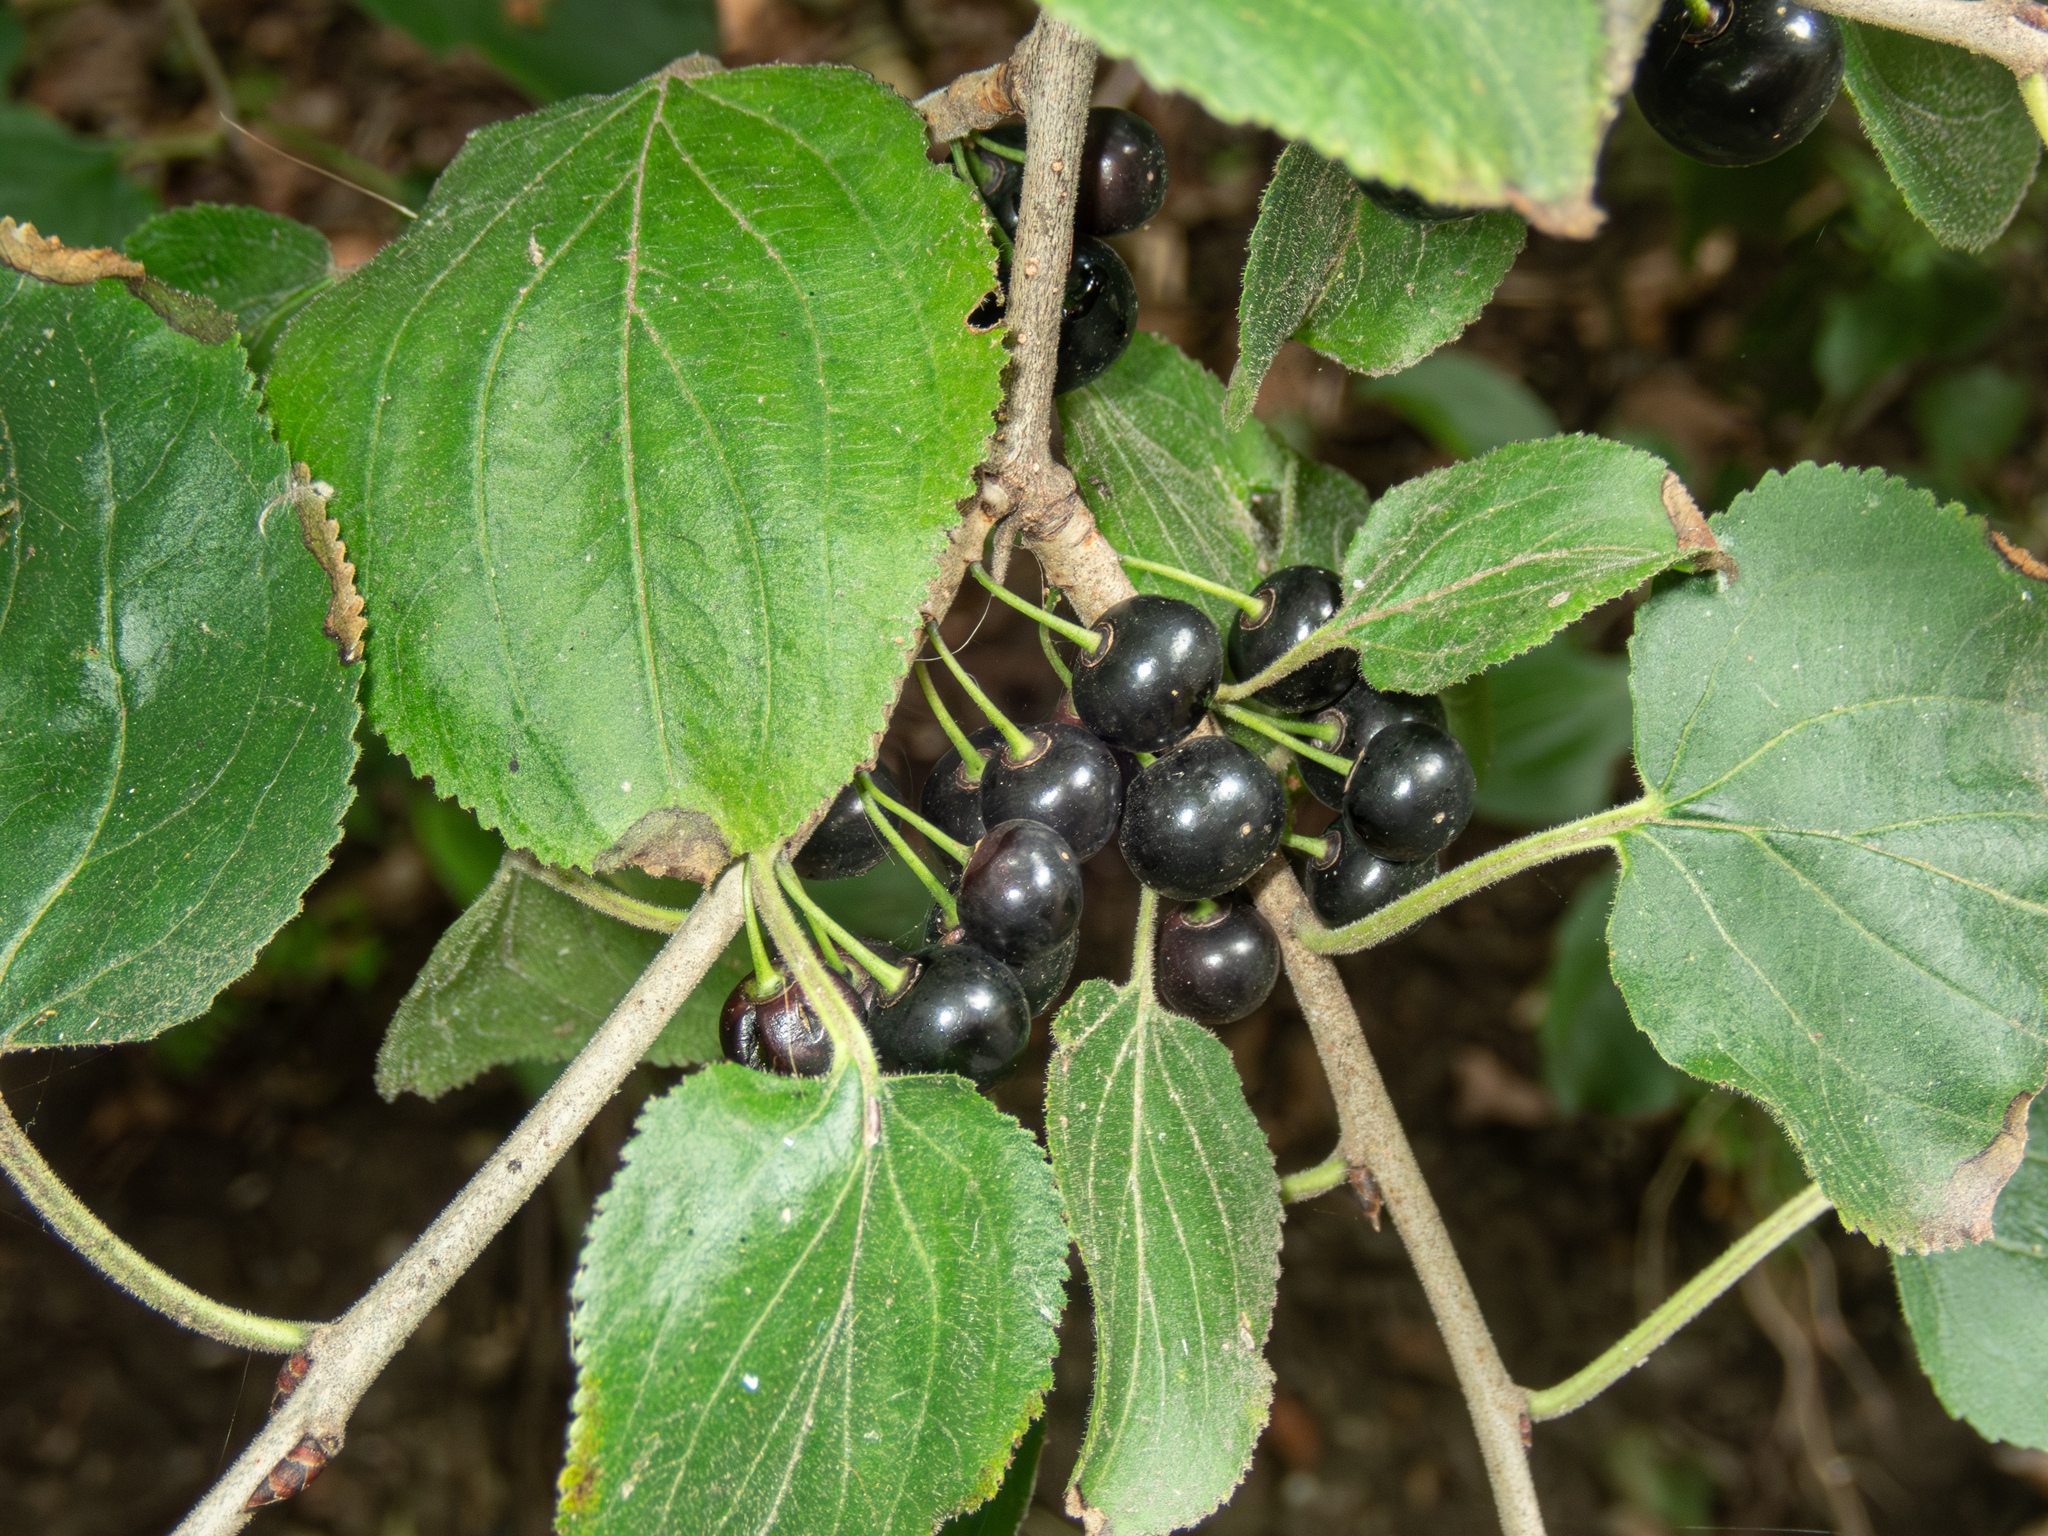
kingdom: Plantae
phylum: Tracheophyta
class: Magnoliopsida
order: Rosales
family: Rhamnaceae
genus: Rhamnus
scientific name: Rhamnus cathartica
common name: Common buckthorn
